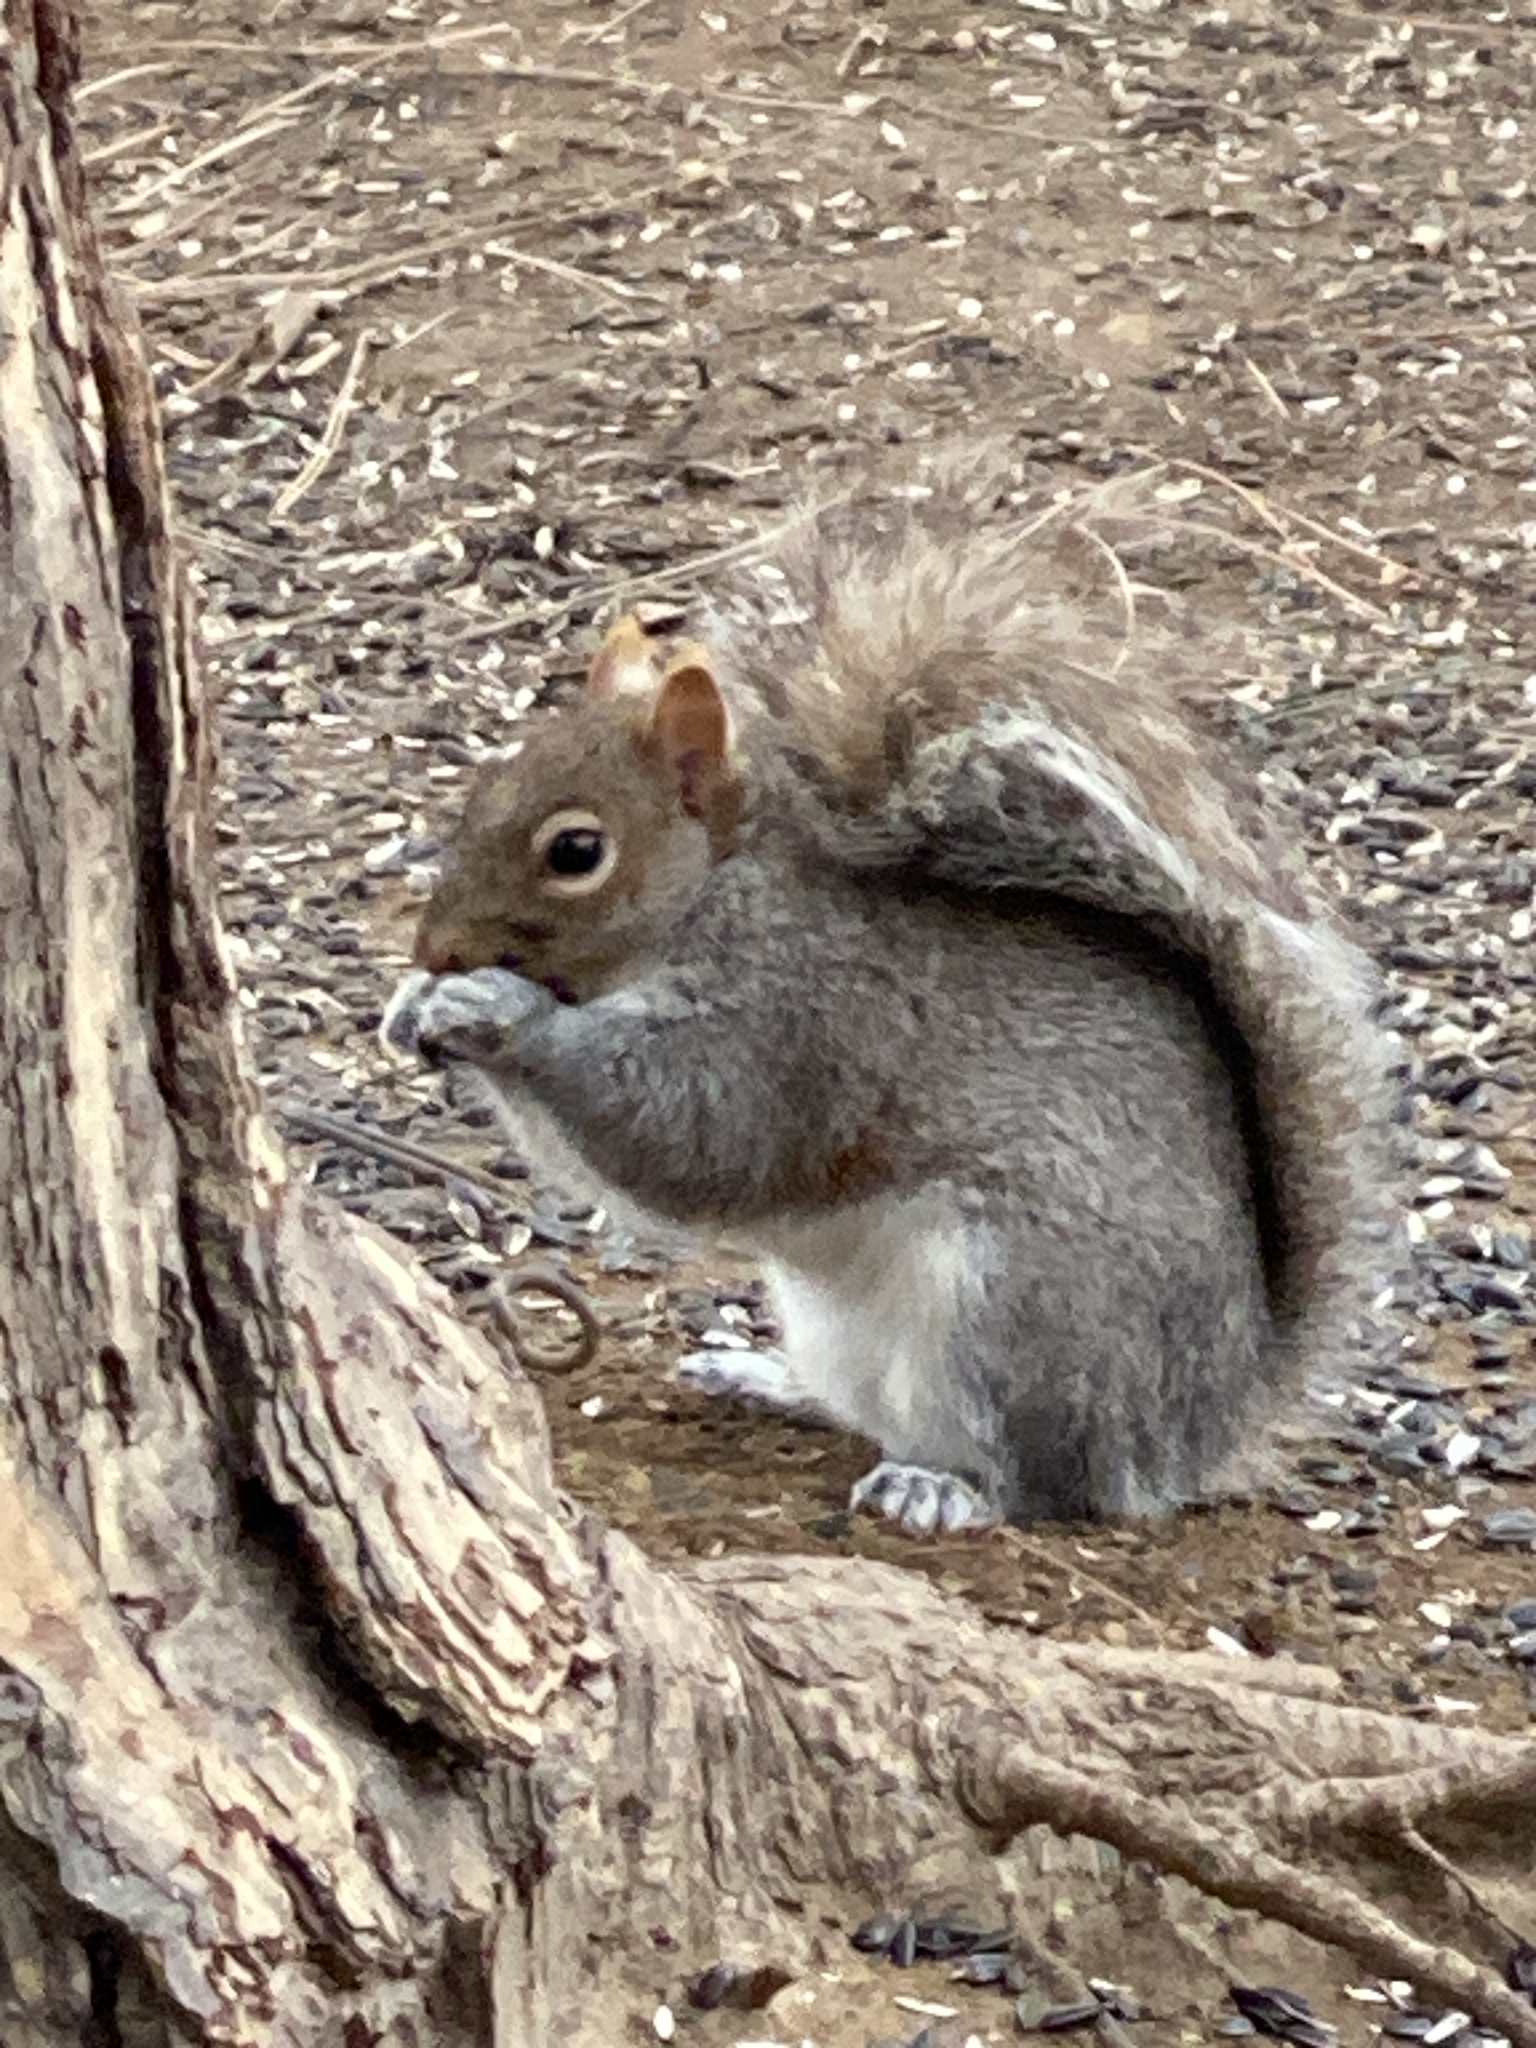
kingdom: Animalia
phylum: Chordata
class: Mammalia
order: Rodentia
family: Sciuridae
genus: Sciurus
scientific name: Sciurus carolinensis
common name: Eastern gray squirrel
